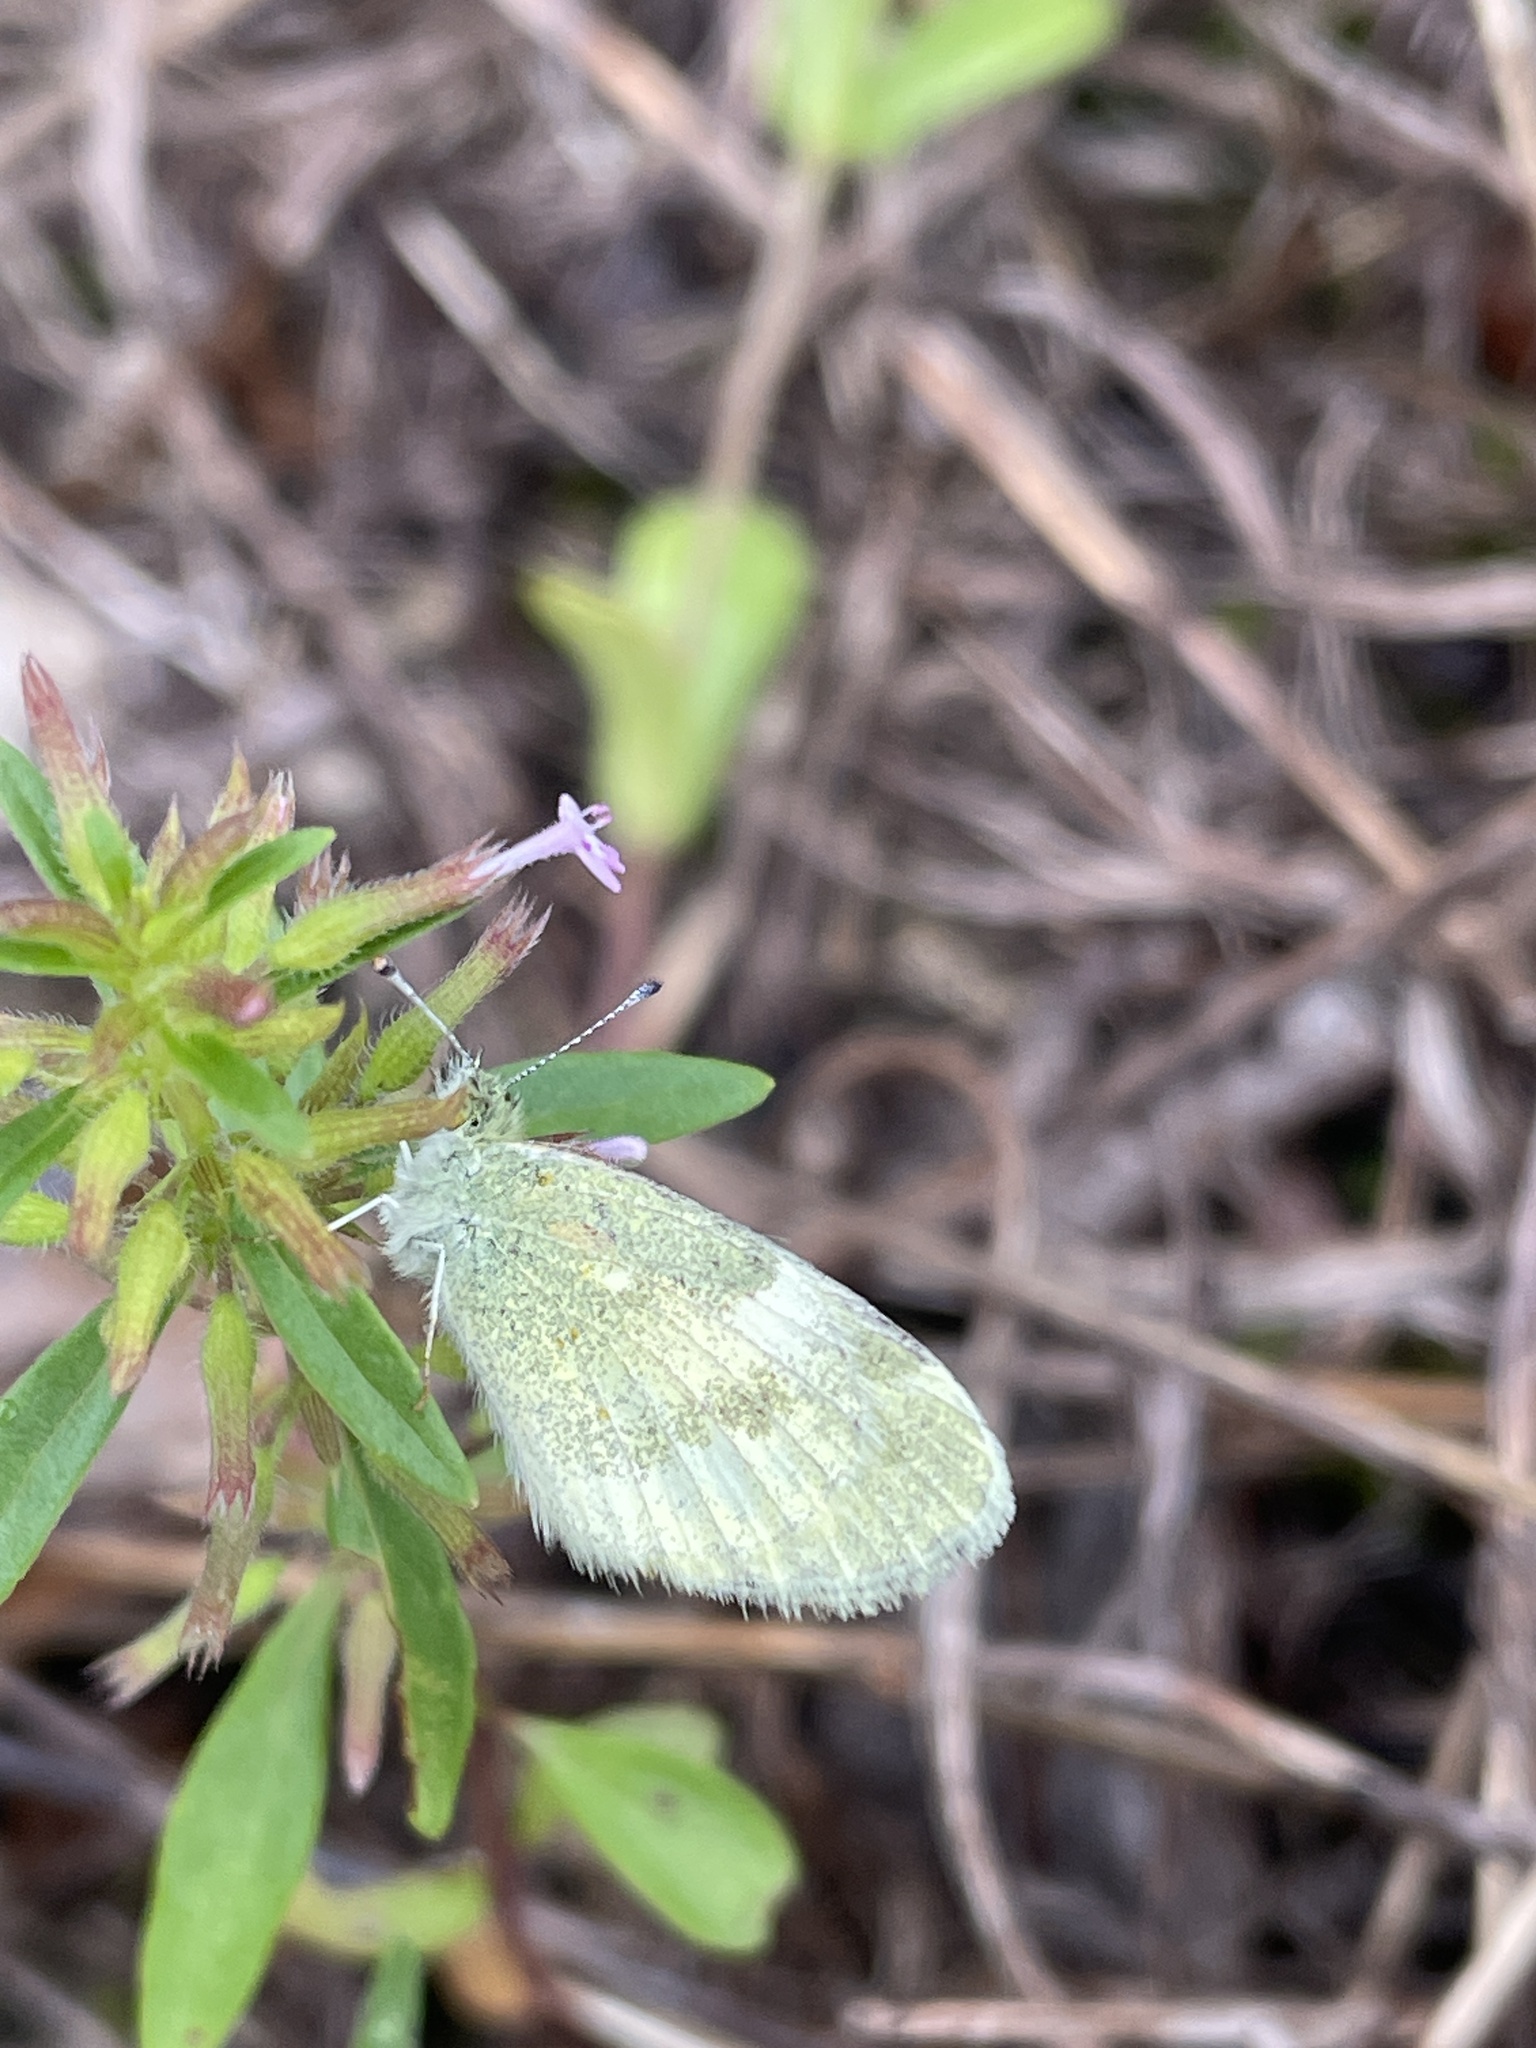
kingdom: Animalia
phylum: Arthropoda
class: Insecta
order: Lepidoptera
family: Pieridae
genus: Nathalis
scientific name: Nathalis iole
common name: Dainty sulphur
